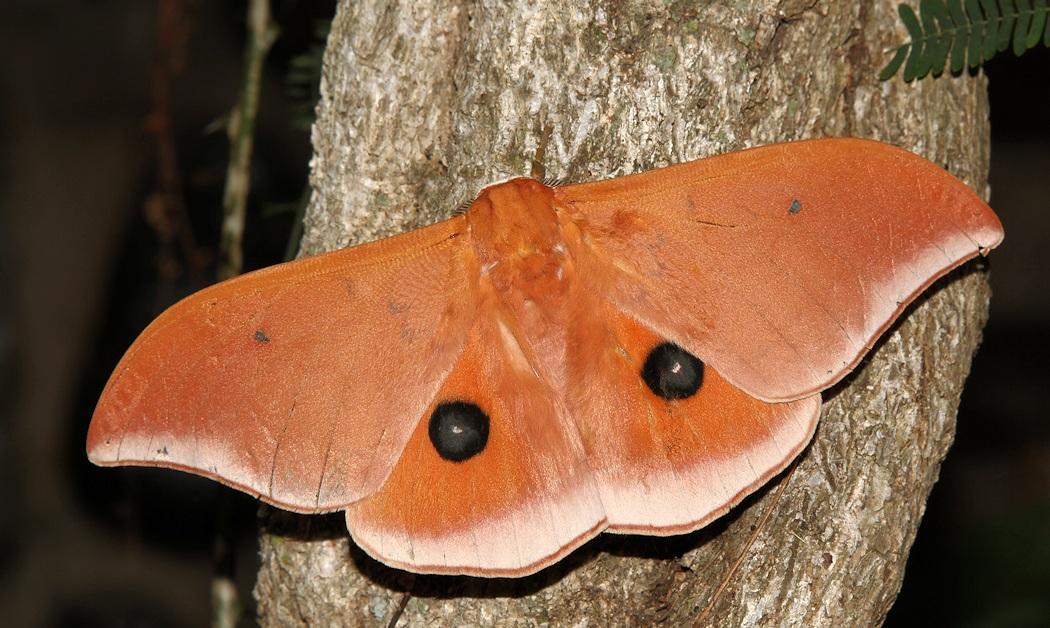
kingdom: Animalia
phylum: Arthropoda
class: Insecta
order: Lepidoptera
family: Saturniidae
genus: Pseudobunaea
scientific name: Pseudobunaea irius
